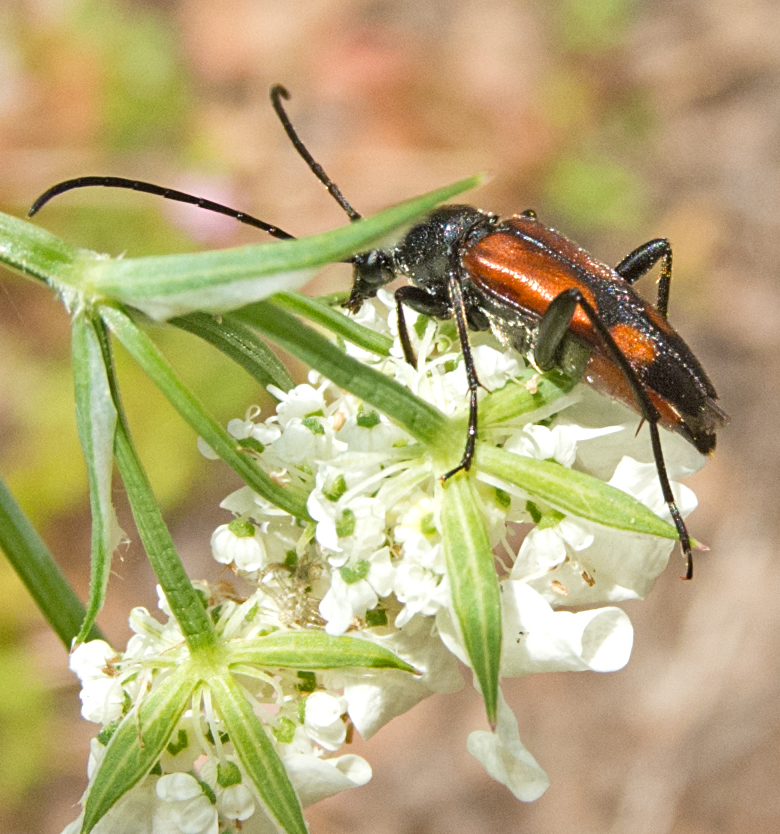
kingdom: Animalia
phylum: Arthropoda
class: Insecta
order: Coleoptera
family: Cerambycidae
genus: Stenurella
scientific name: Stenurella bifasciata
